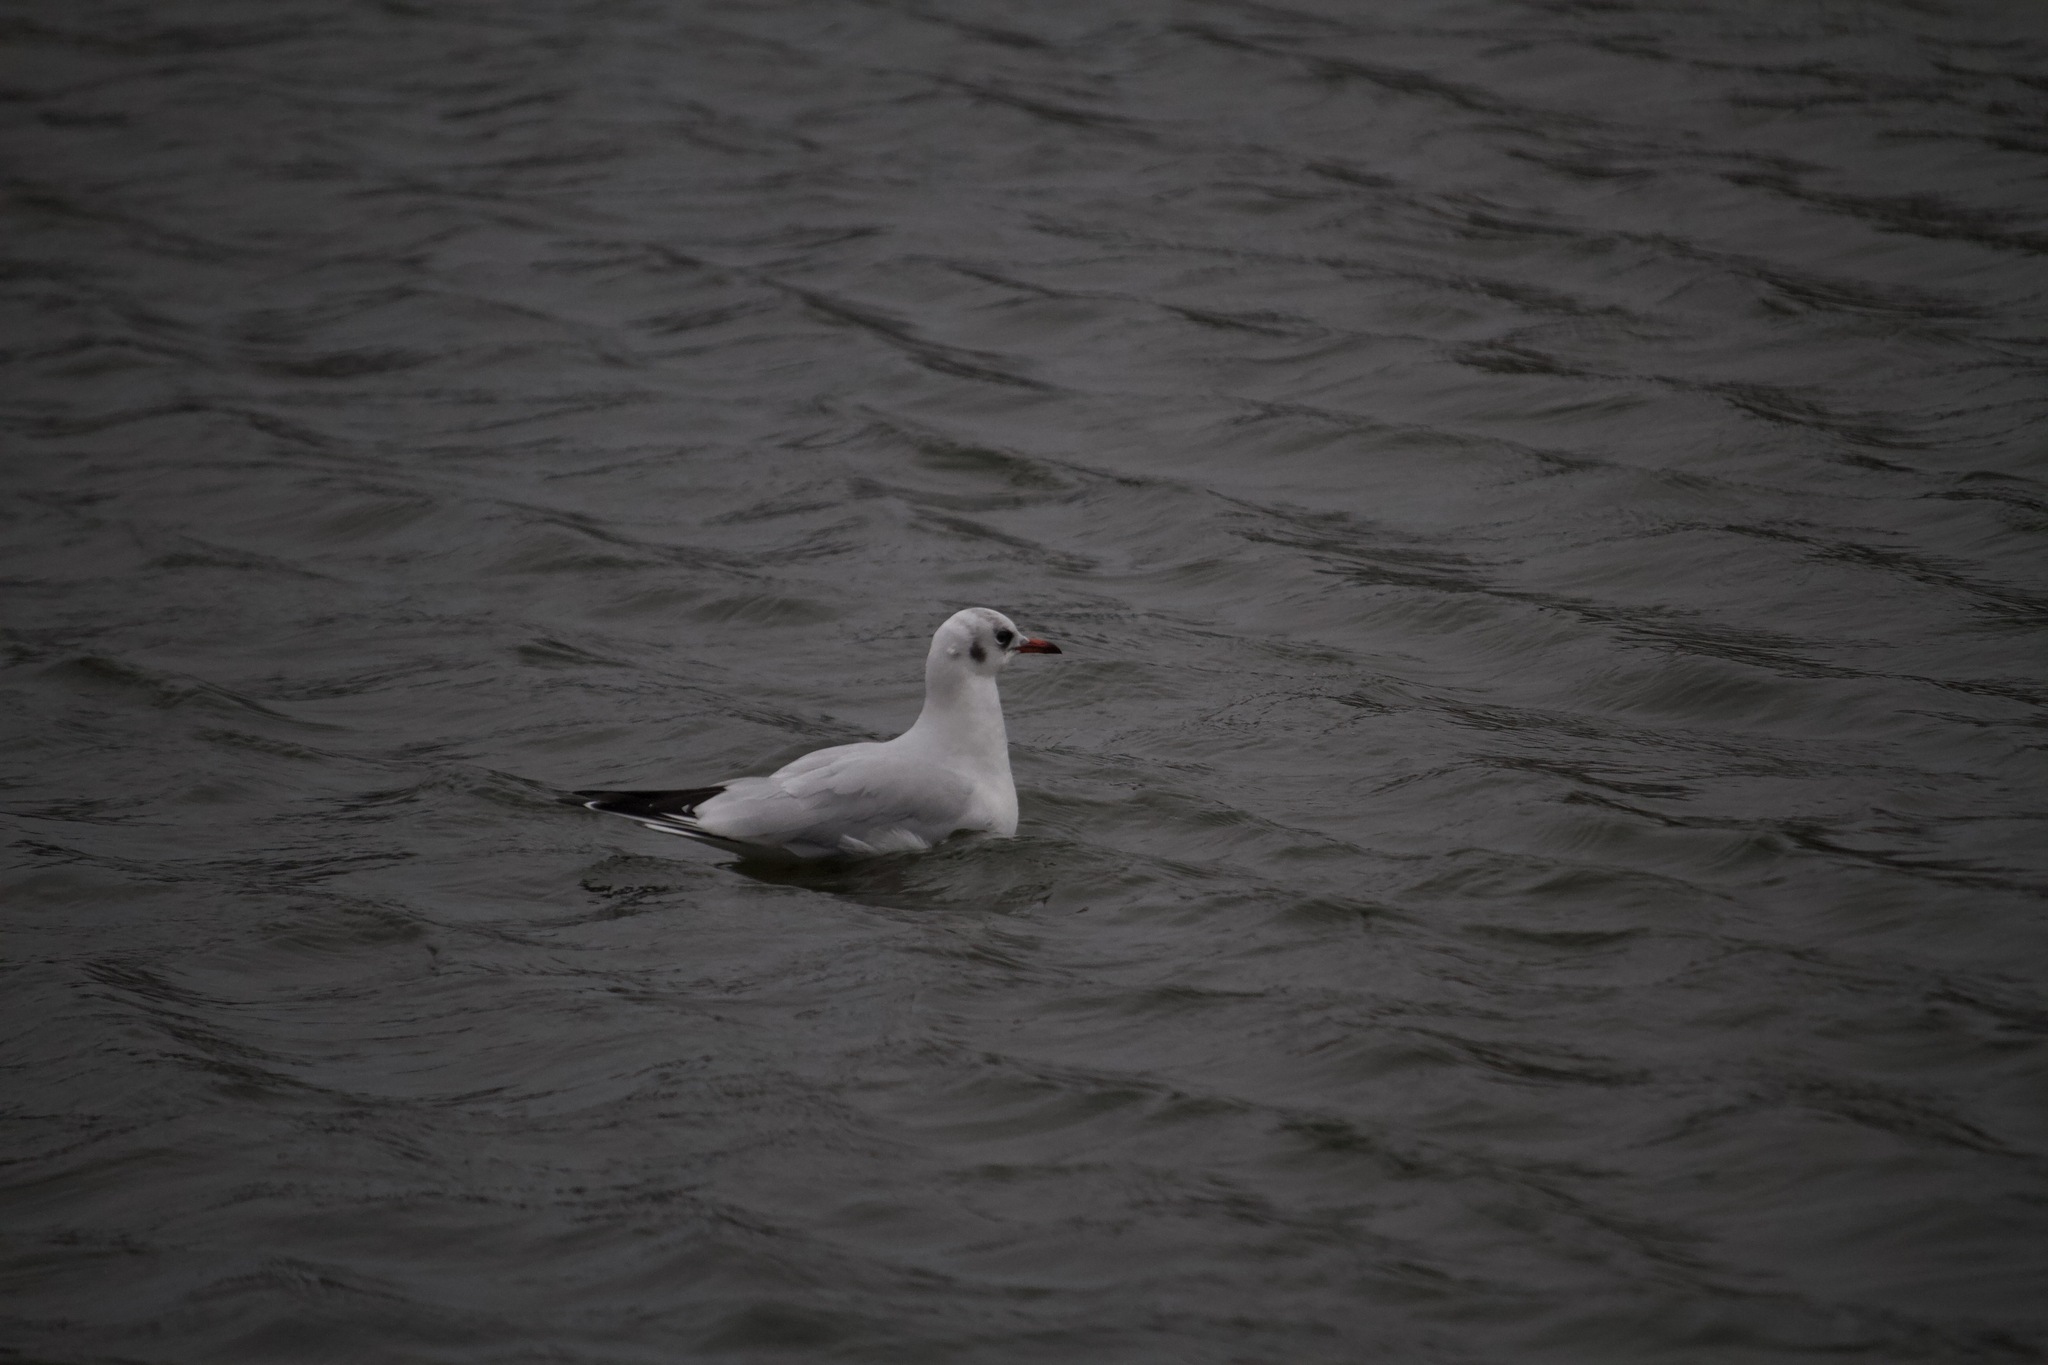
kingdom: Animalia
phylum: Chordata
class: Aves
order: Charadriiformes
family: Laridae
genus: Chroicocephalus
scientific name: Chroicocephalus ridibundus
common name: Black-headed gull
